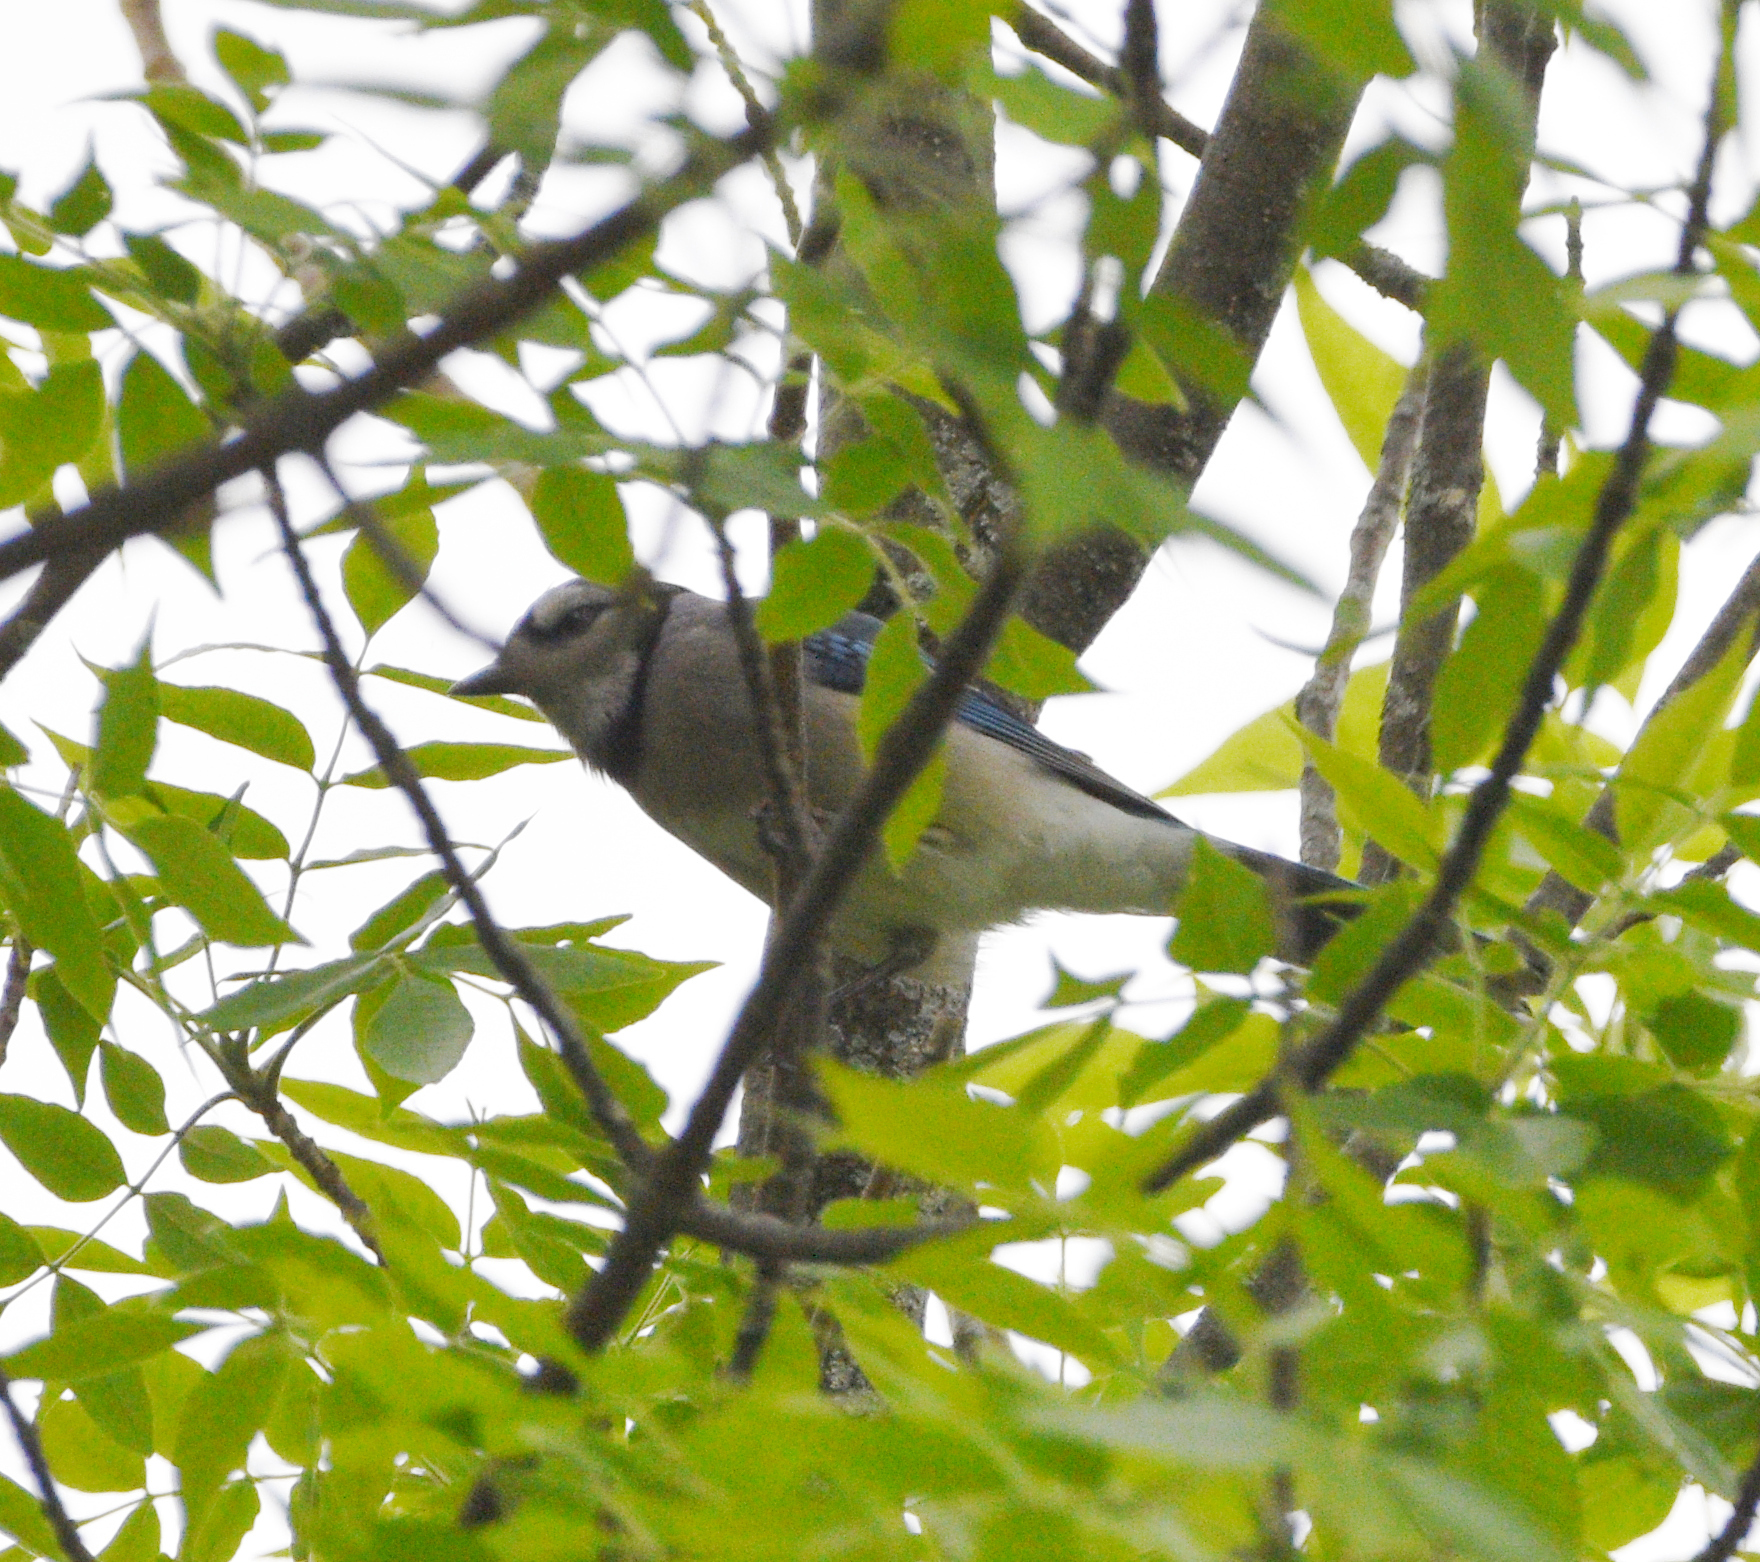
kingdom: Animalia
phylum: Chordata
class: Aves
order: Passeriformes
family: Corvidae
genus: Cyanocitta
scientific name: Cyanocitta cristata
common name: Blue jay
